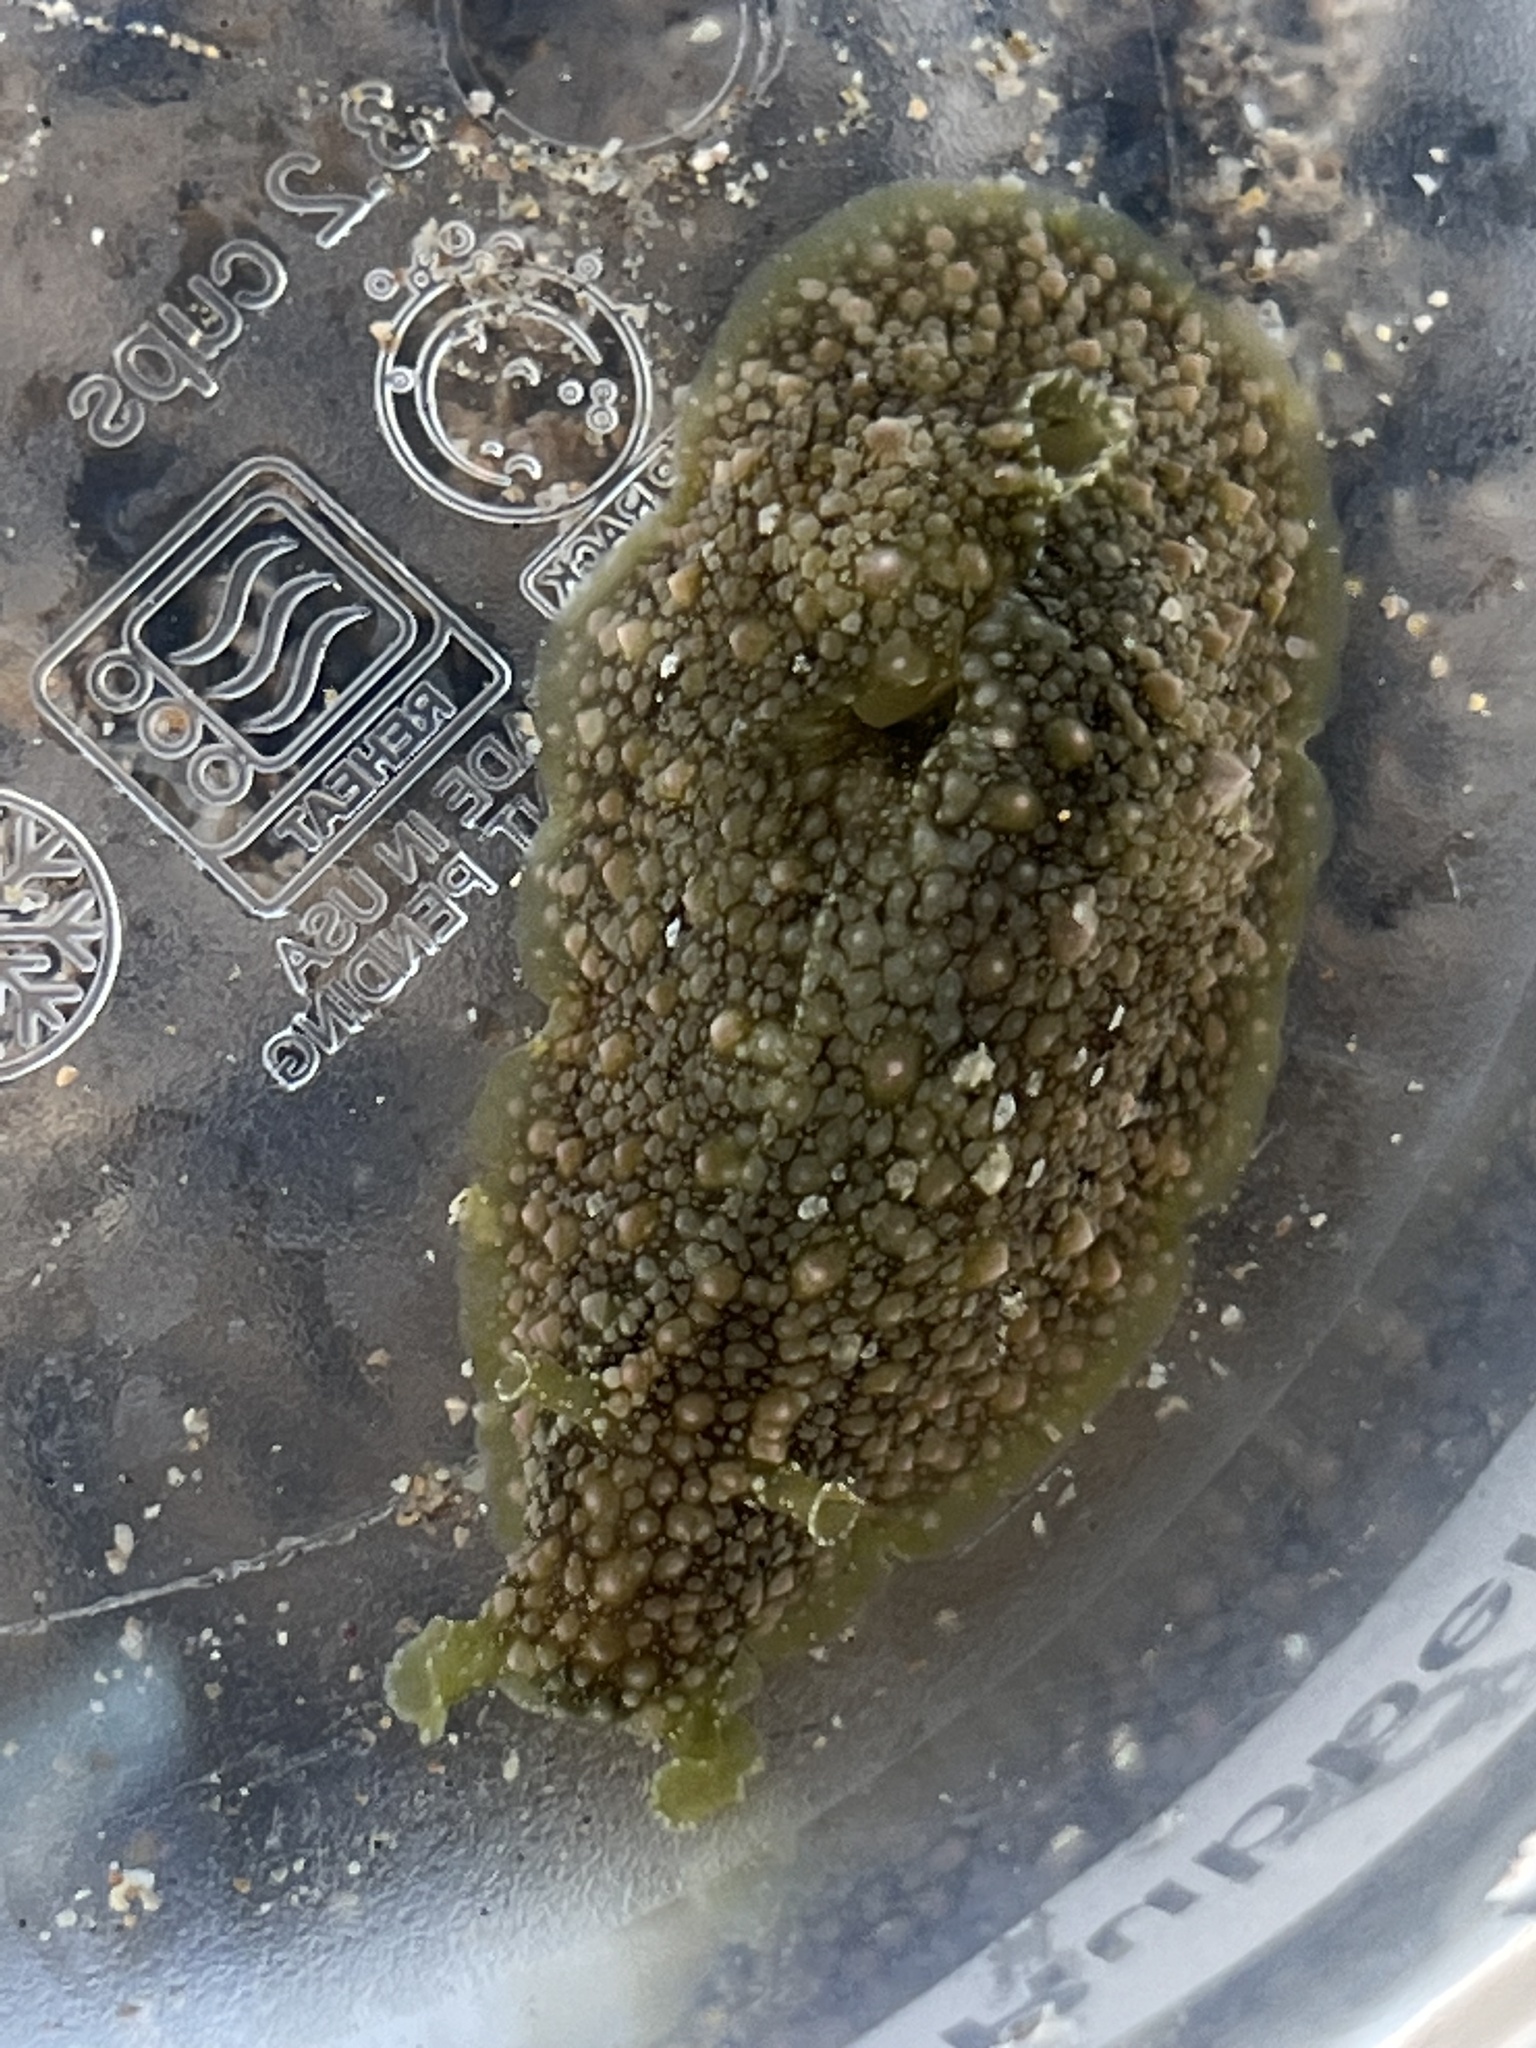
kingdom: Animalia
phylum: Mollusca
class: Gastropoda
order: Aplysiida
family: Aplysiidae
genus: Dolabrifera
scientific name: Dolabrifera nicaraguana
